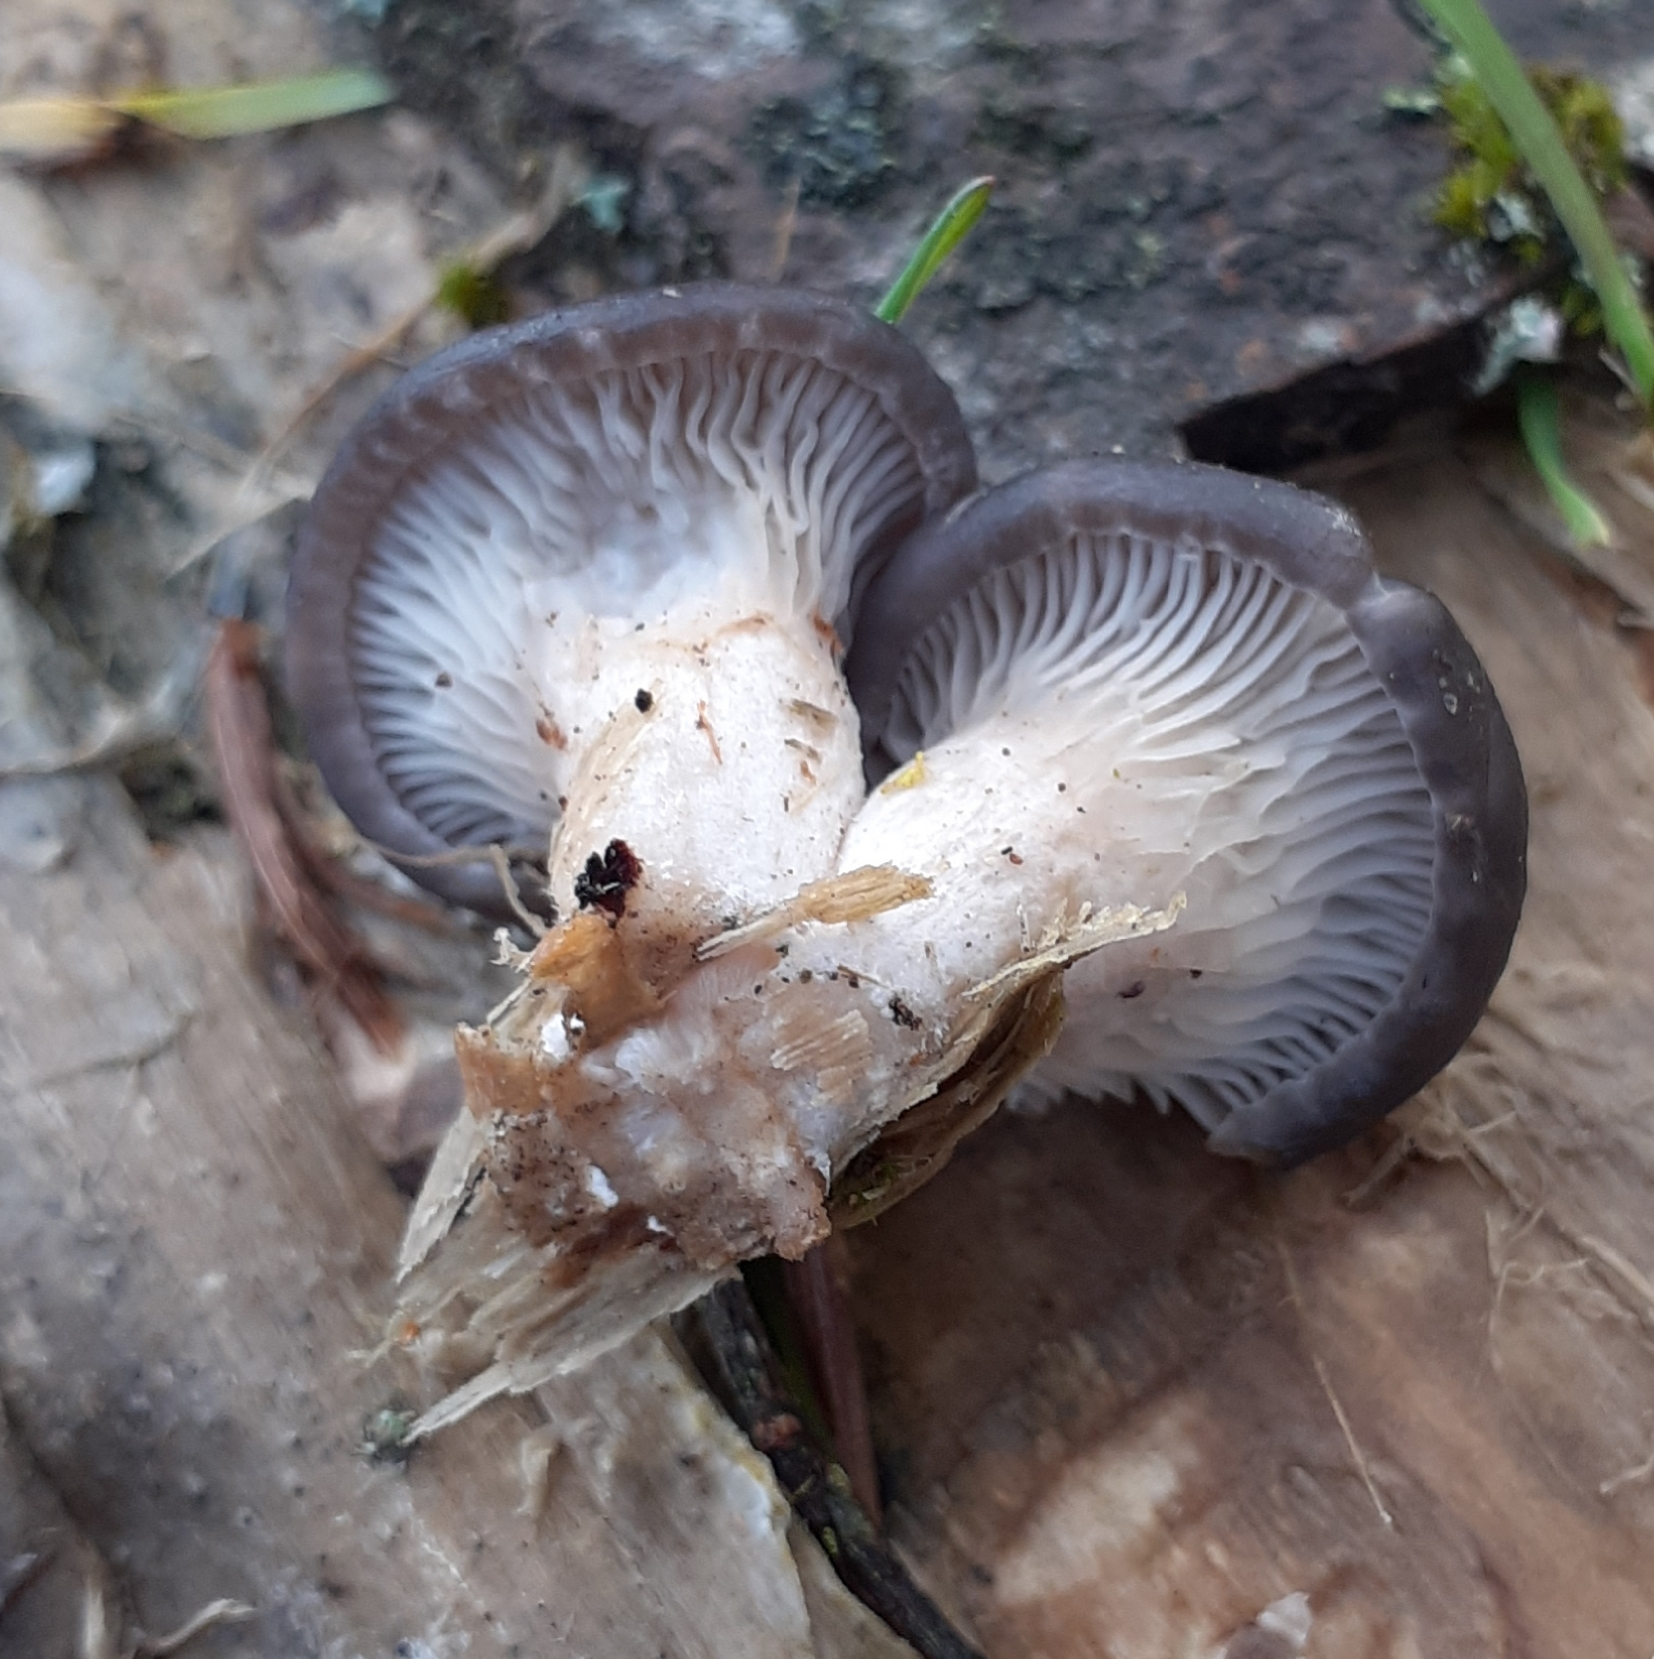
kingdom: Fungi
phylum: Basidiomycota
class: Agaricomycetes
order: Agaricales
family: Pleurotaceae
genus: Pleurotus
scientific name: Pleurotus ostreatus
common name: Oyster mushroom
